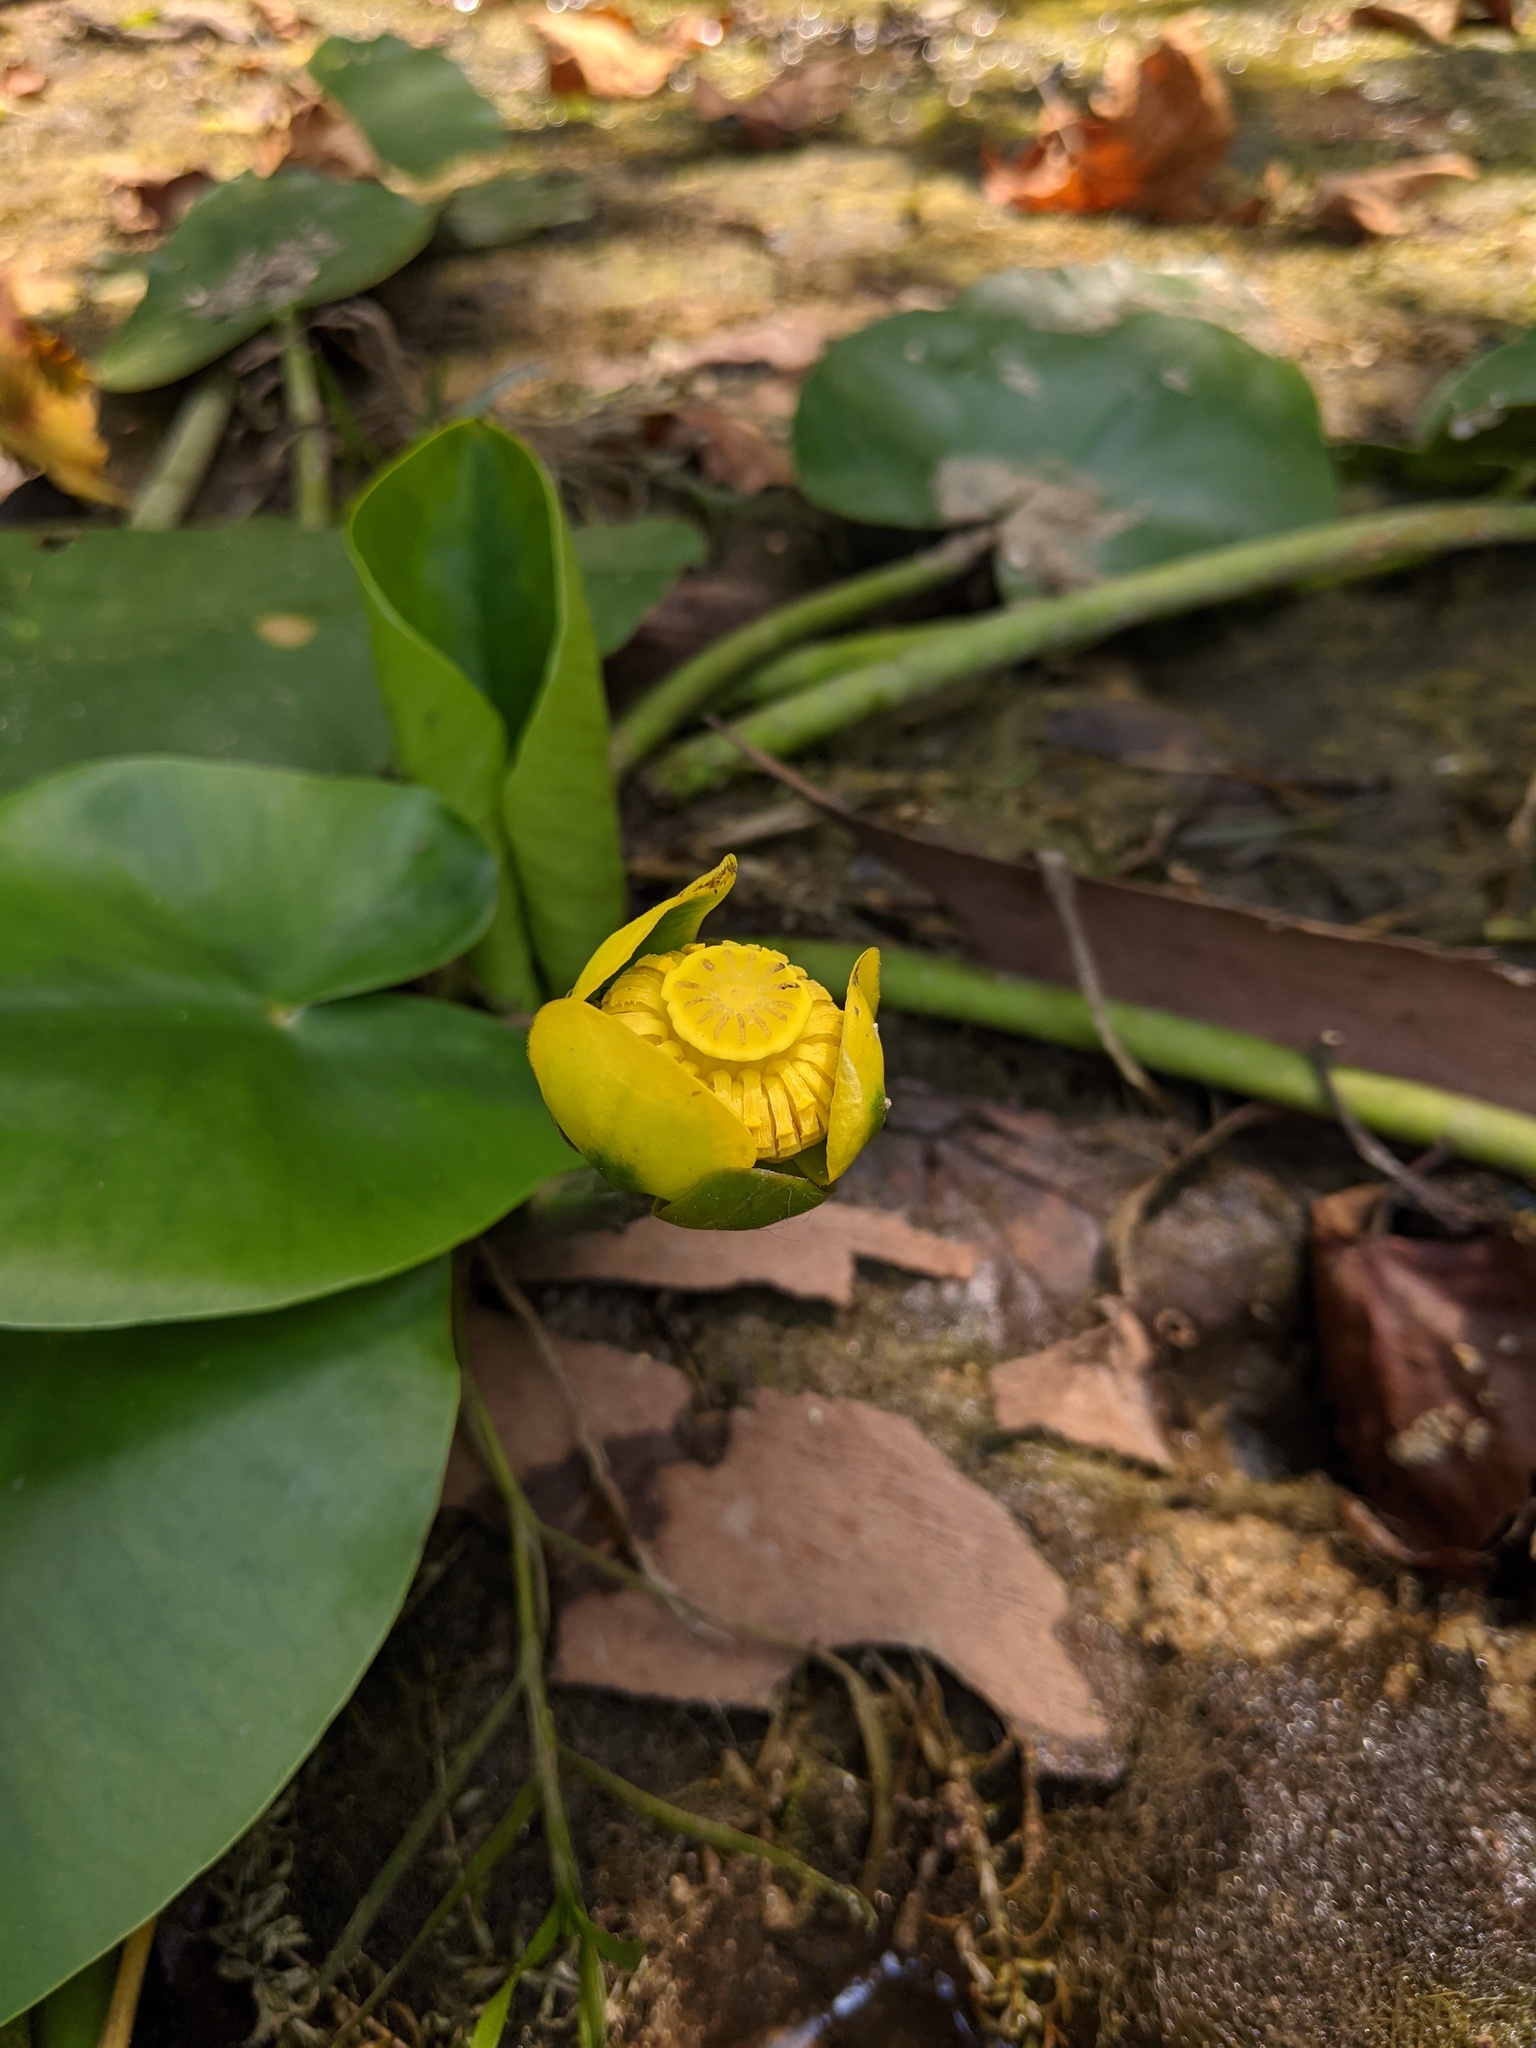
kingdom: Plantae
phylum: Tracheophyta
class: Magnoliopsida
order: Nymphaeales
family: Nymphaeaceae
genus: Nuphar
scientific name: Nuphar advena
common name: Spatter-dock
